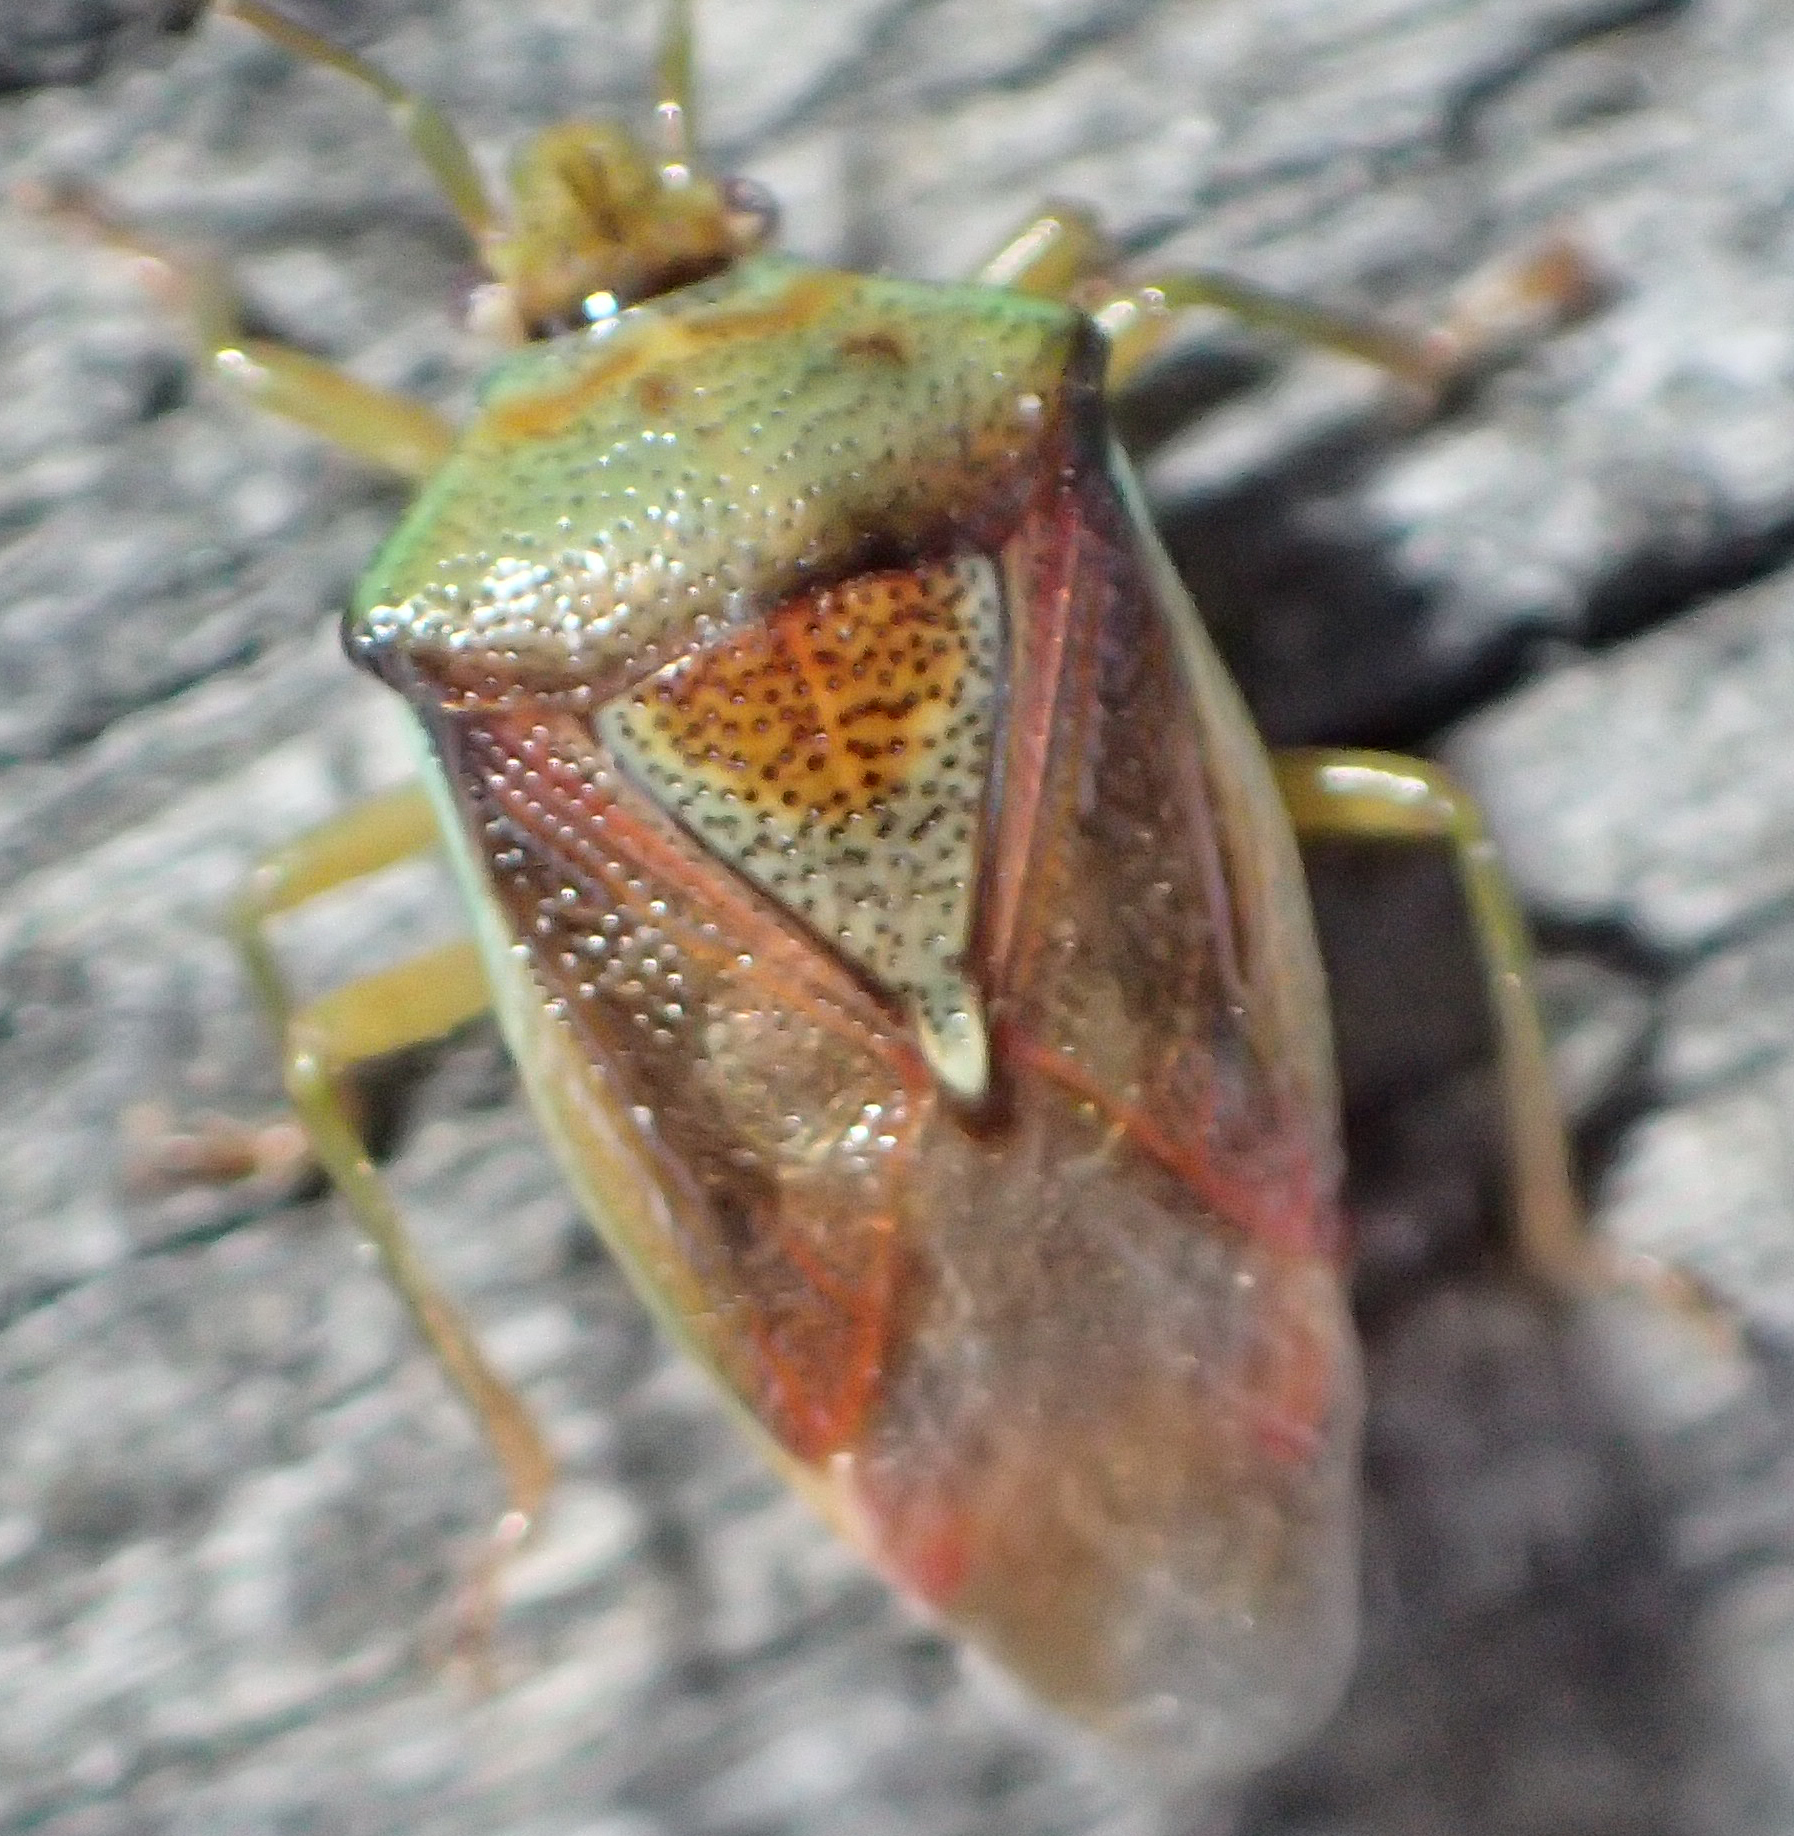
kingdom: Animalia
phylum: Arthropoda
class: Insecta
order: Hemiptera
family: Acanthosomatidae
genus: Elasmostethus
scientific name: Elasmostethus interstinctus
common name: Birch shieldbug
